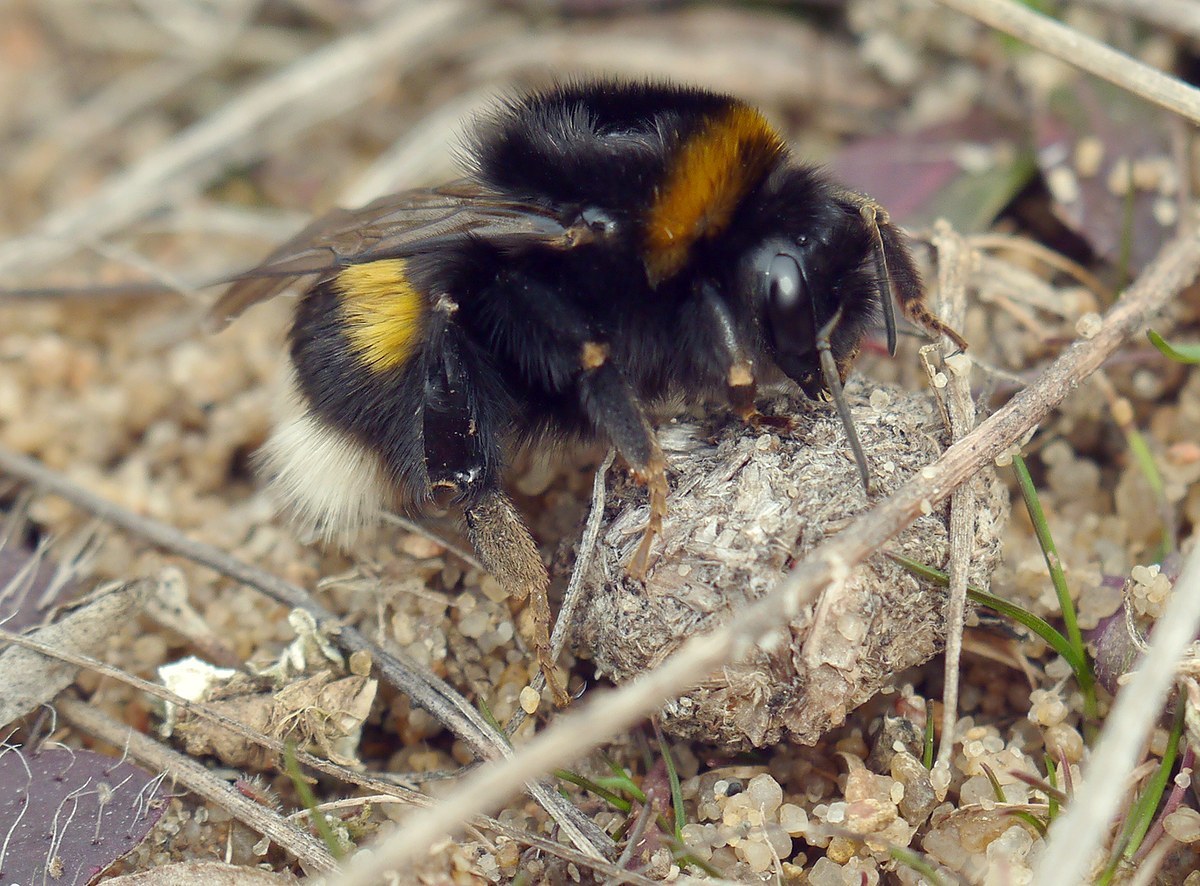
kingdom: Animalia
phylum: Arthropoda
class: Insecta
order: Hymenoptera
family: Apidae
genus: Bombus
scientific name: Bombus terrestris
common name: Buff-tailed bumblebee
